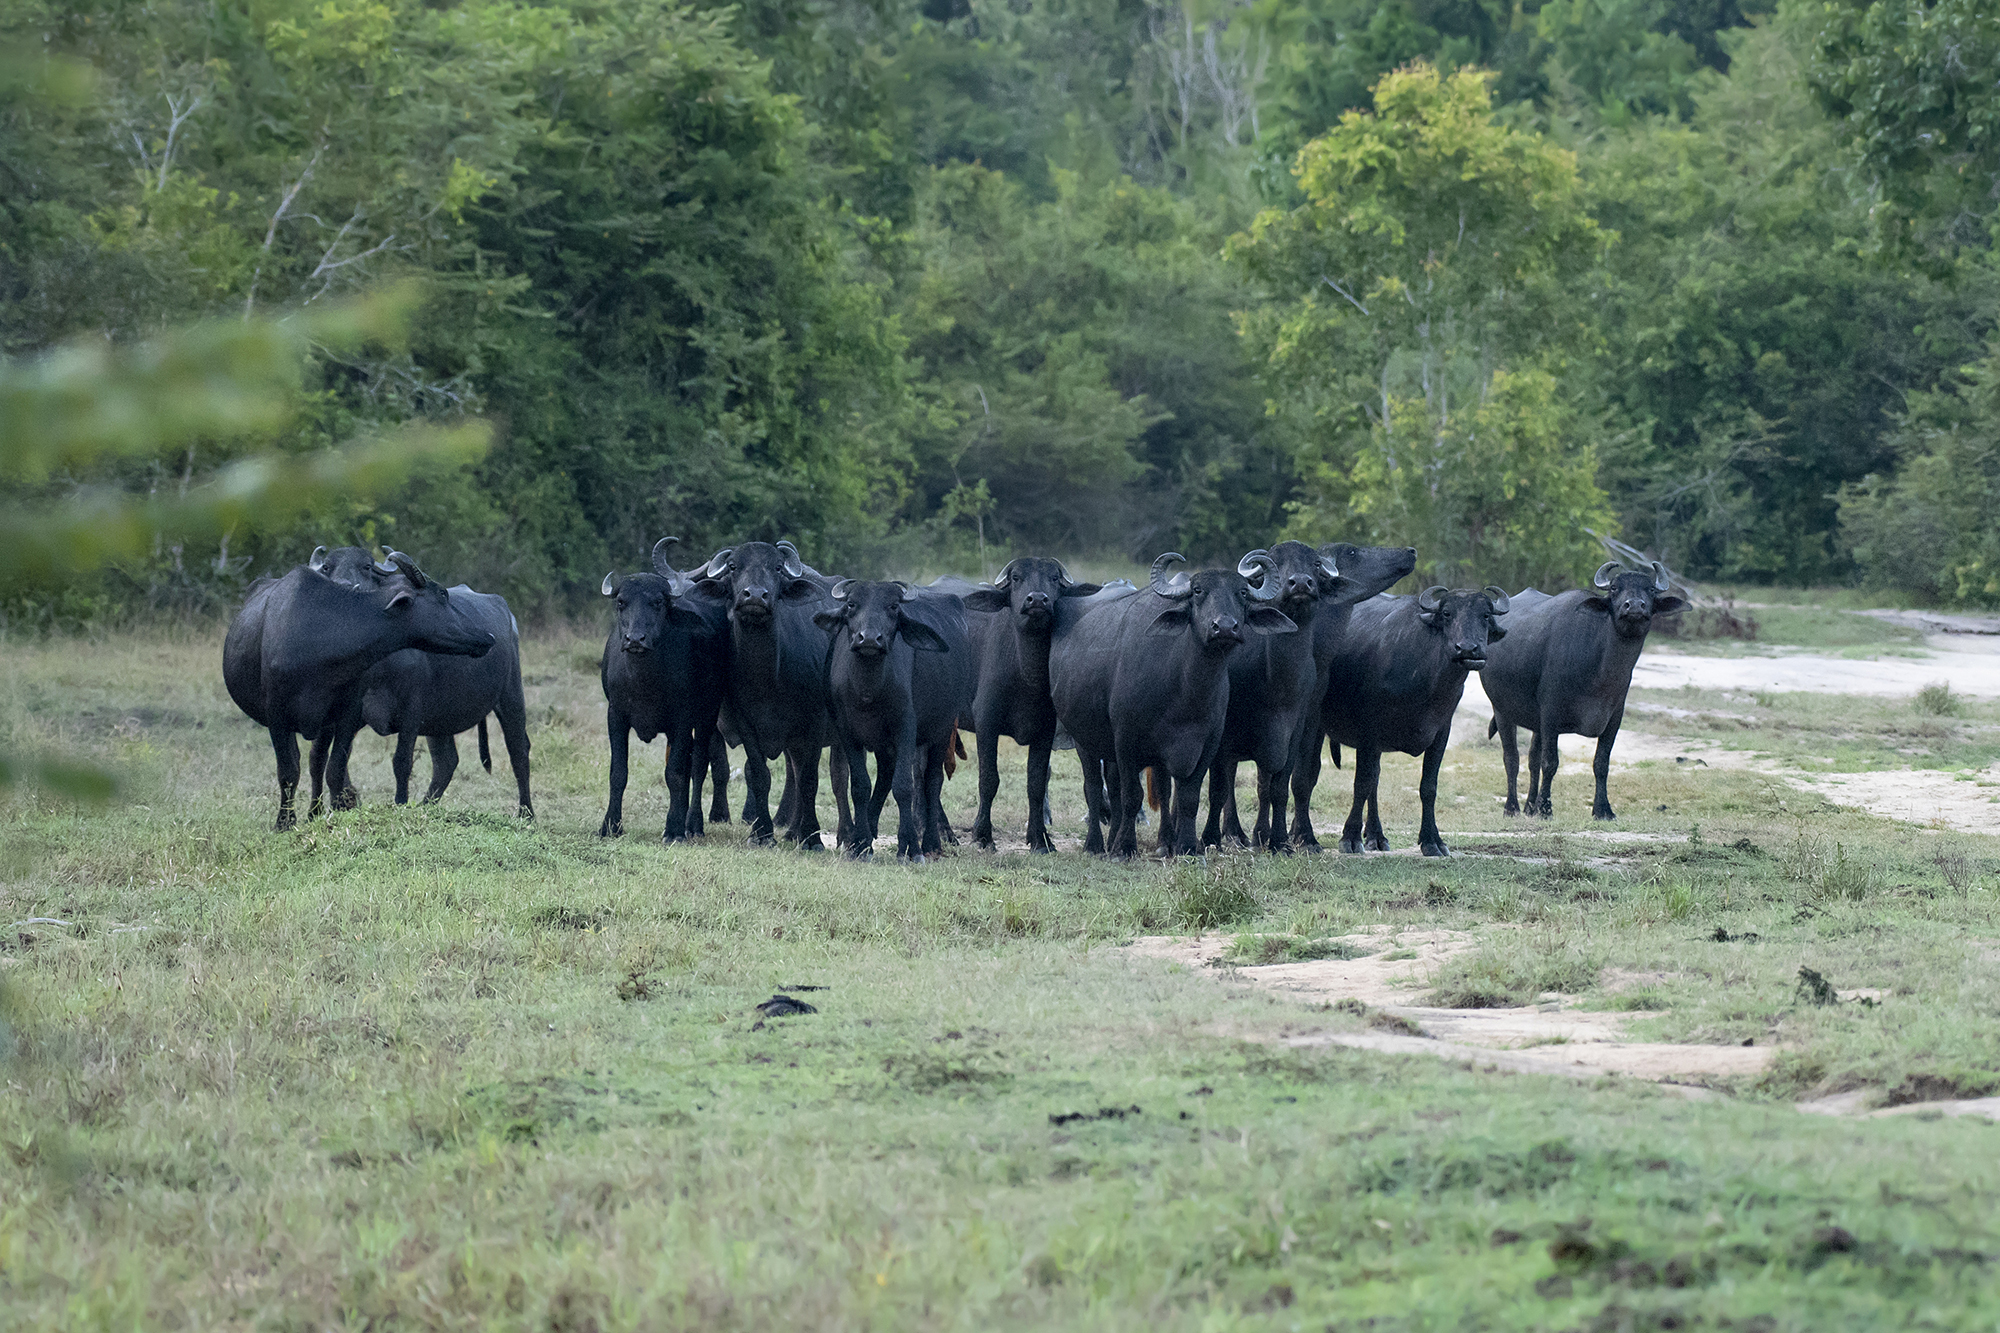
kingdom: Animalia
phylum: Chordata
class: Mammalia
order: Artiodactyla
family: Bovidae
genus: Bubalus
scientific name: Bubalus bubalis
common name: Water buffalo
